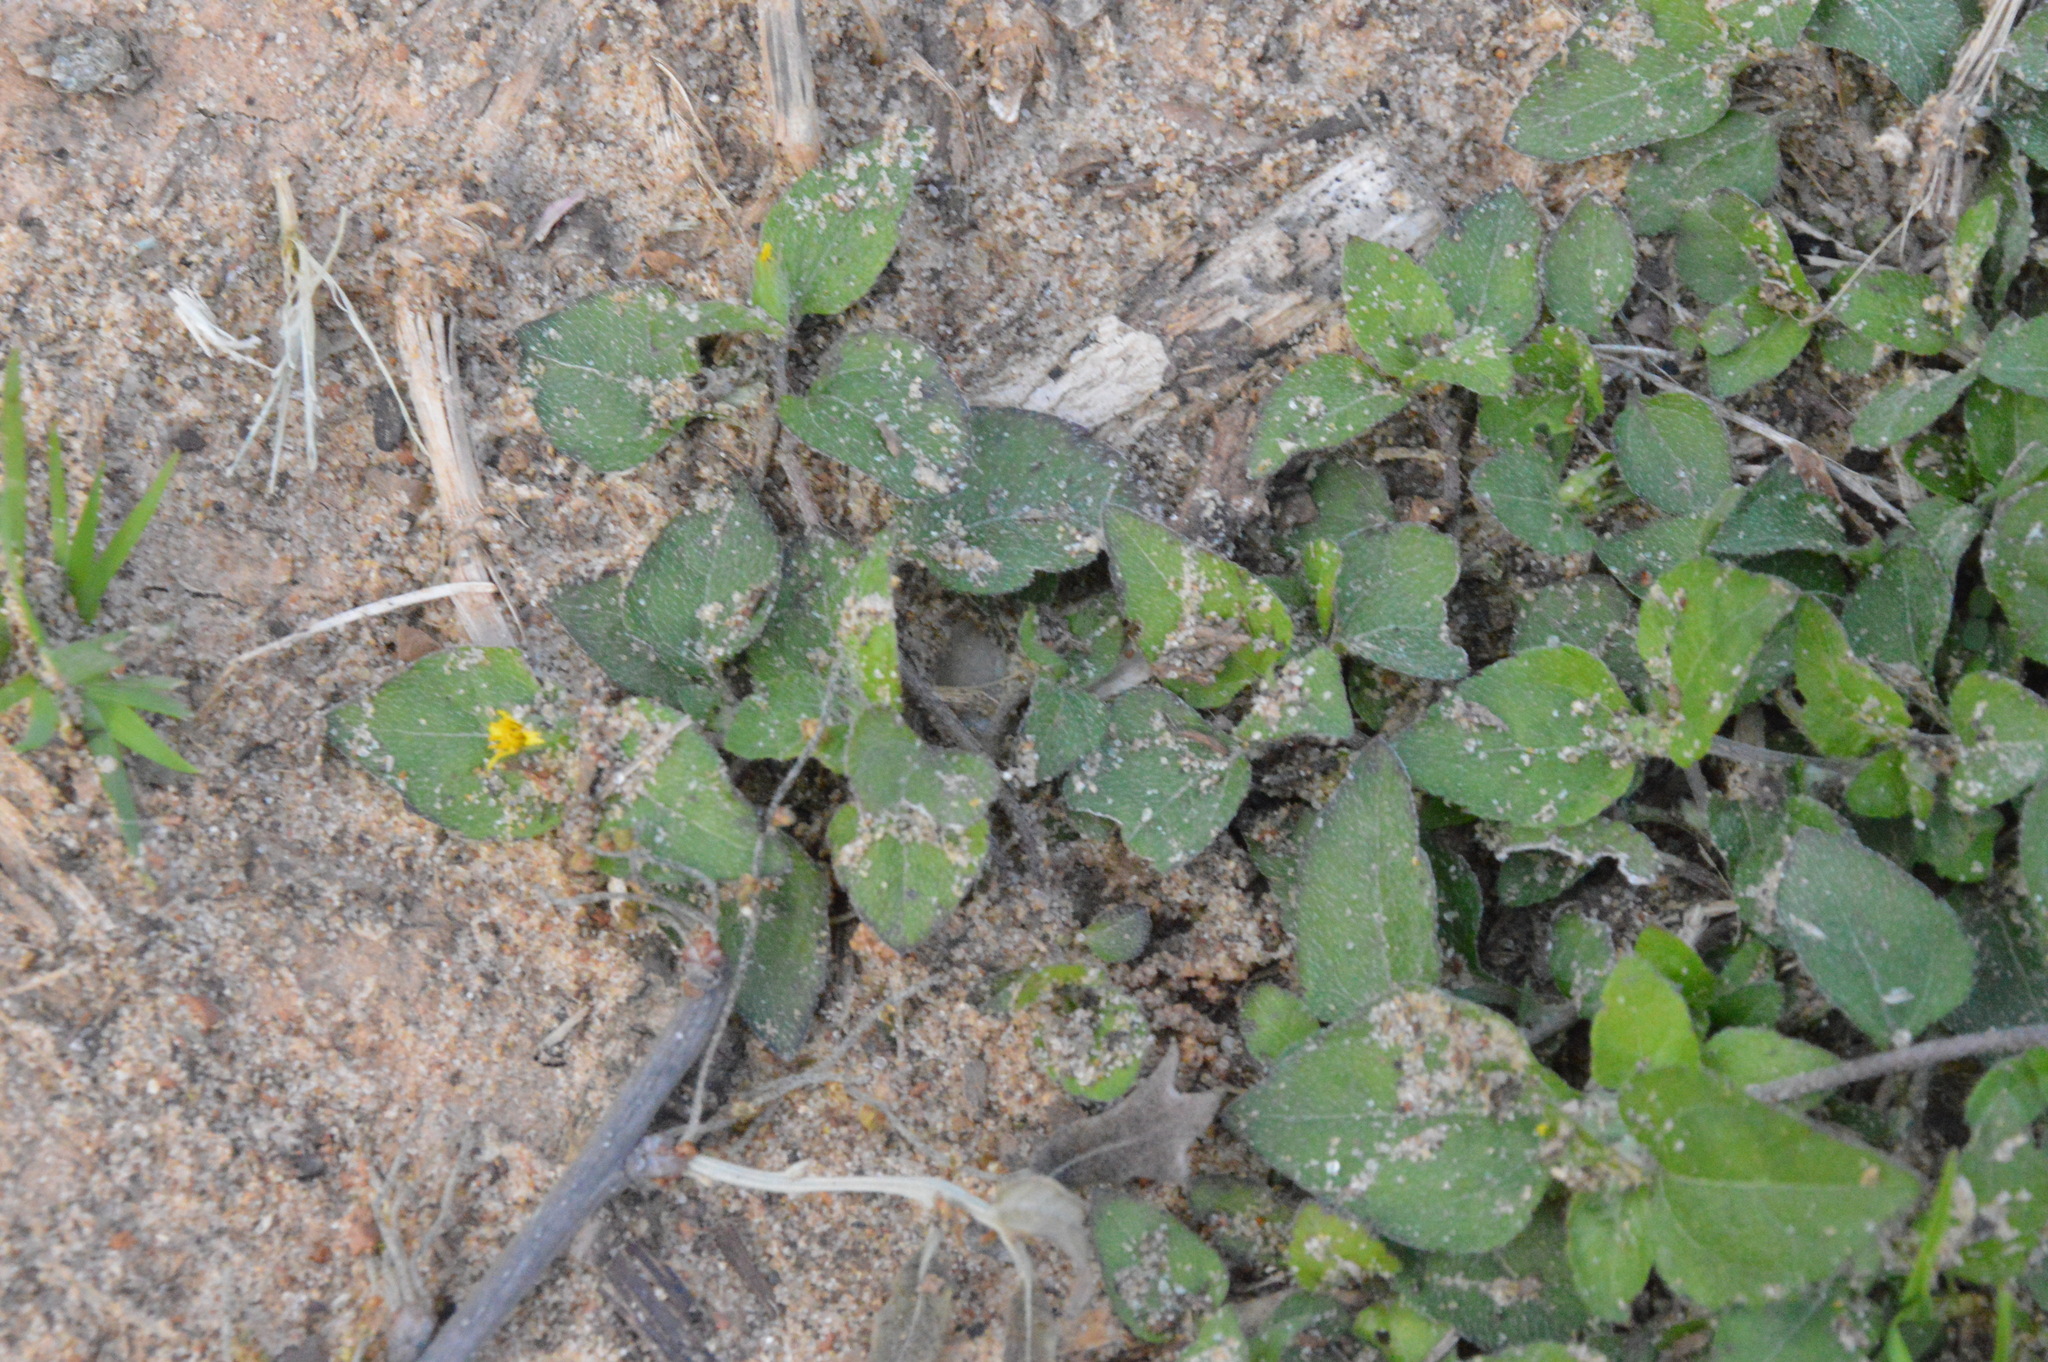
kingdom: Plantae
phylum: Tracheophyta
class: Magnoliopsida
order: Asterales
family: Asteraceae
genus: Calyptocarpus
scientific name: Calyptocarpus vialis
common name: Straggler daisy
